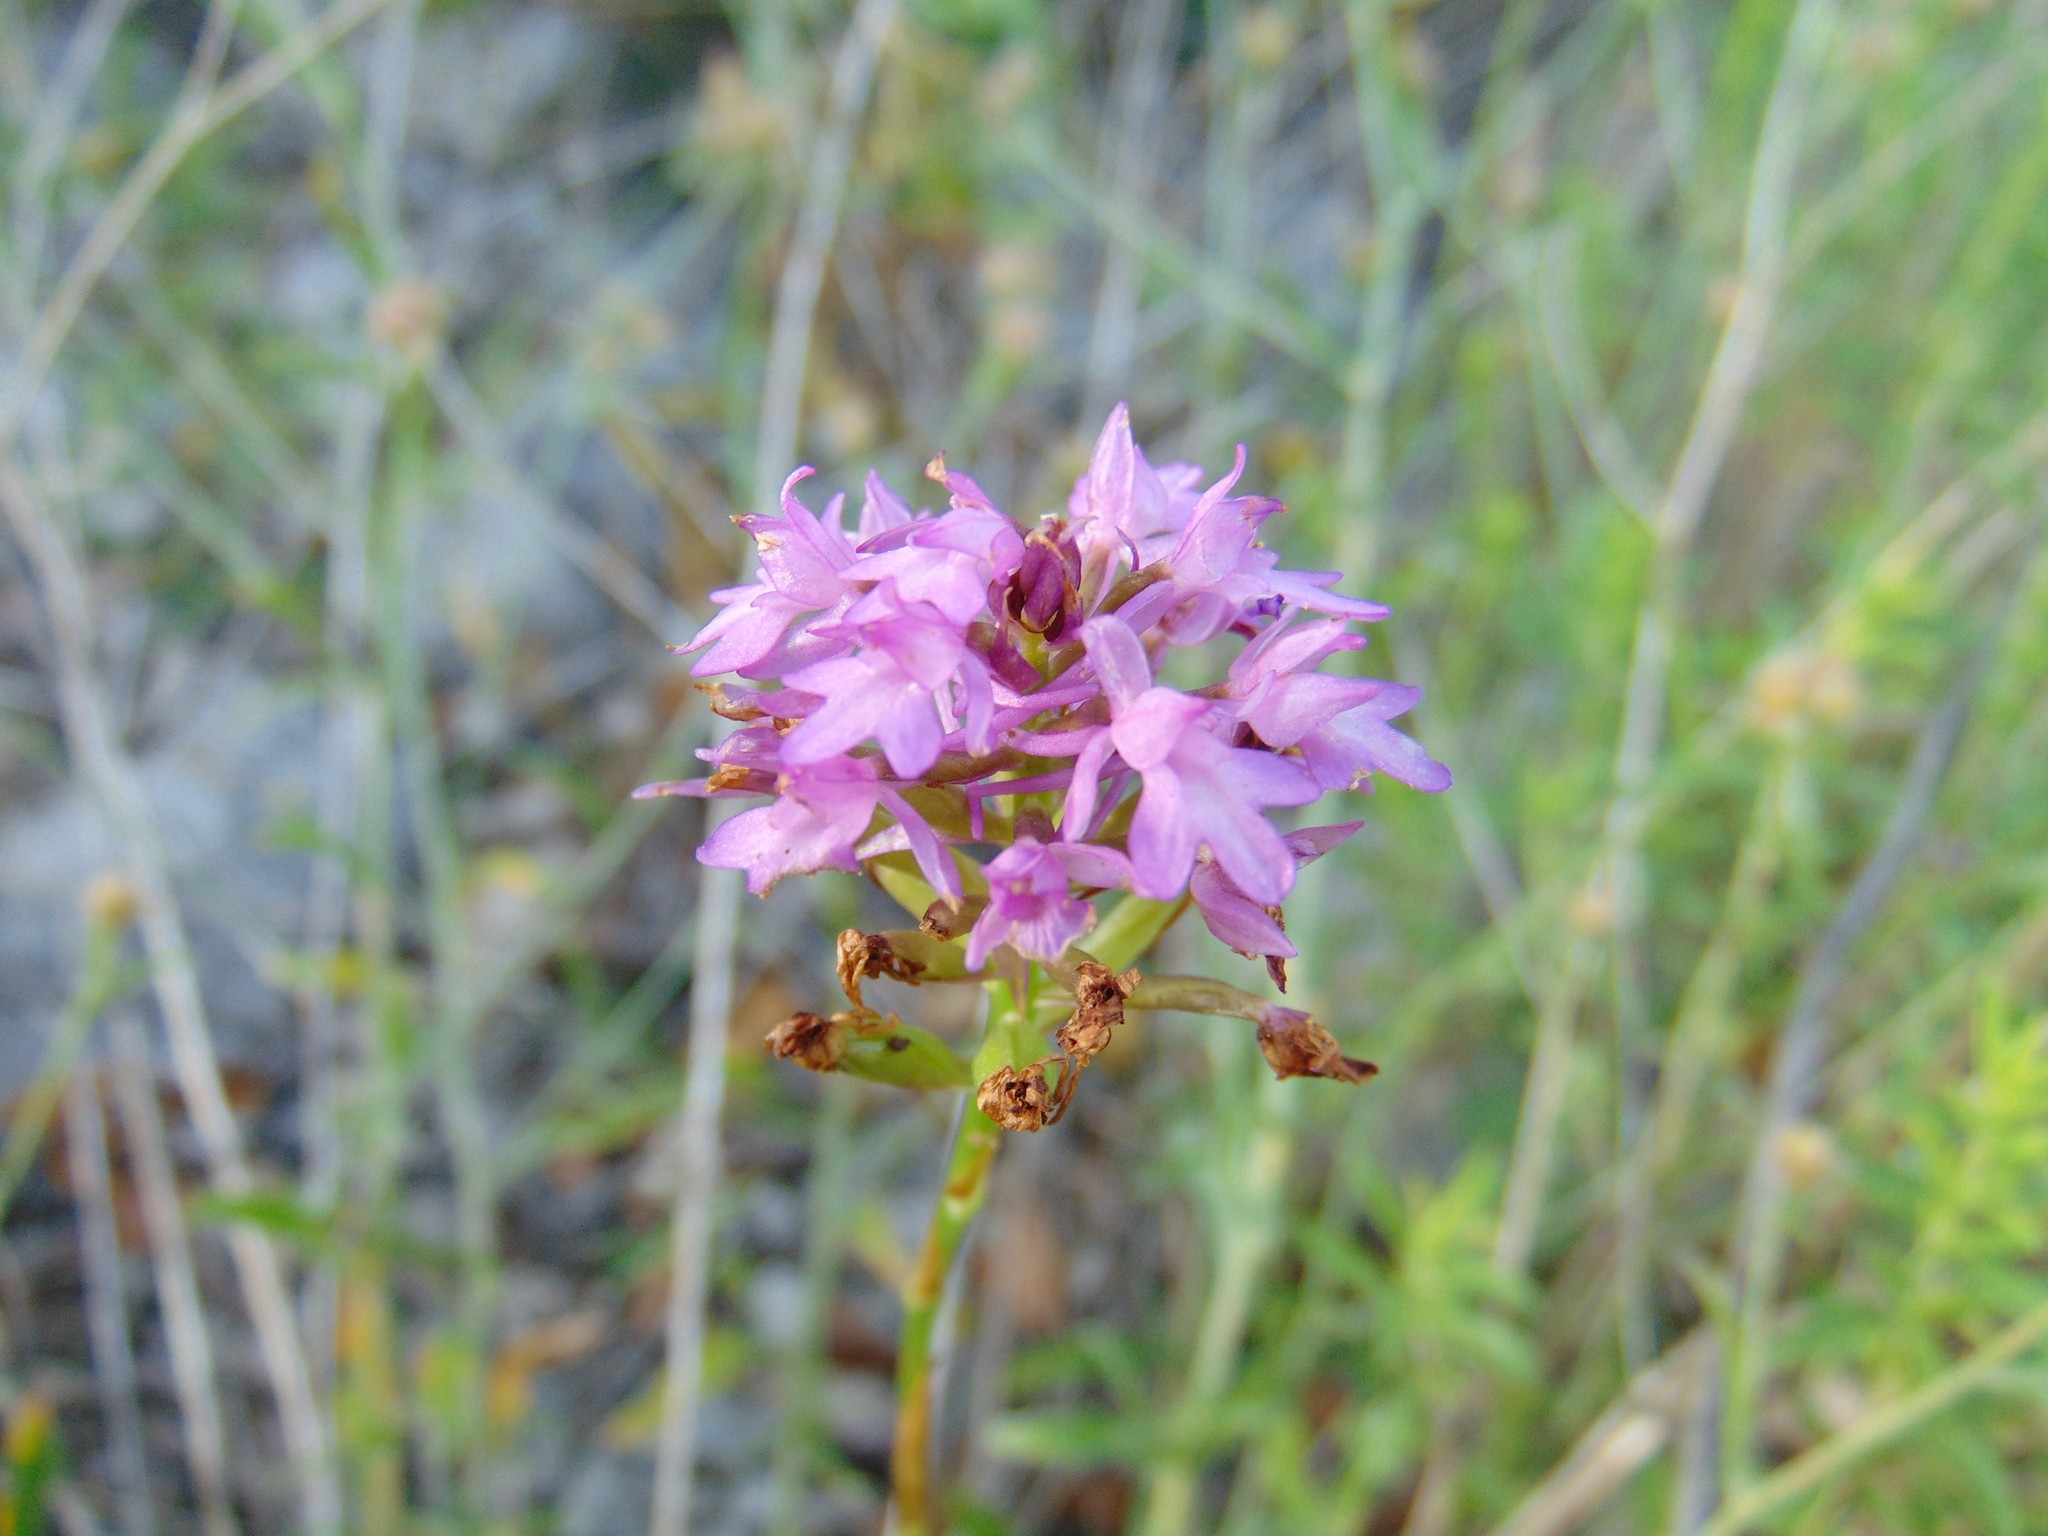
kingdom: Plantae
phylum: Tracheophyta
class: Liliopsida
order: Asparagales
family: Orchidaceae
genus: Anacamptis
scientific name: Anacamptis pyramidalis
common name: Pyramidal orchid
